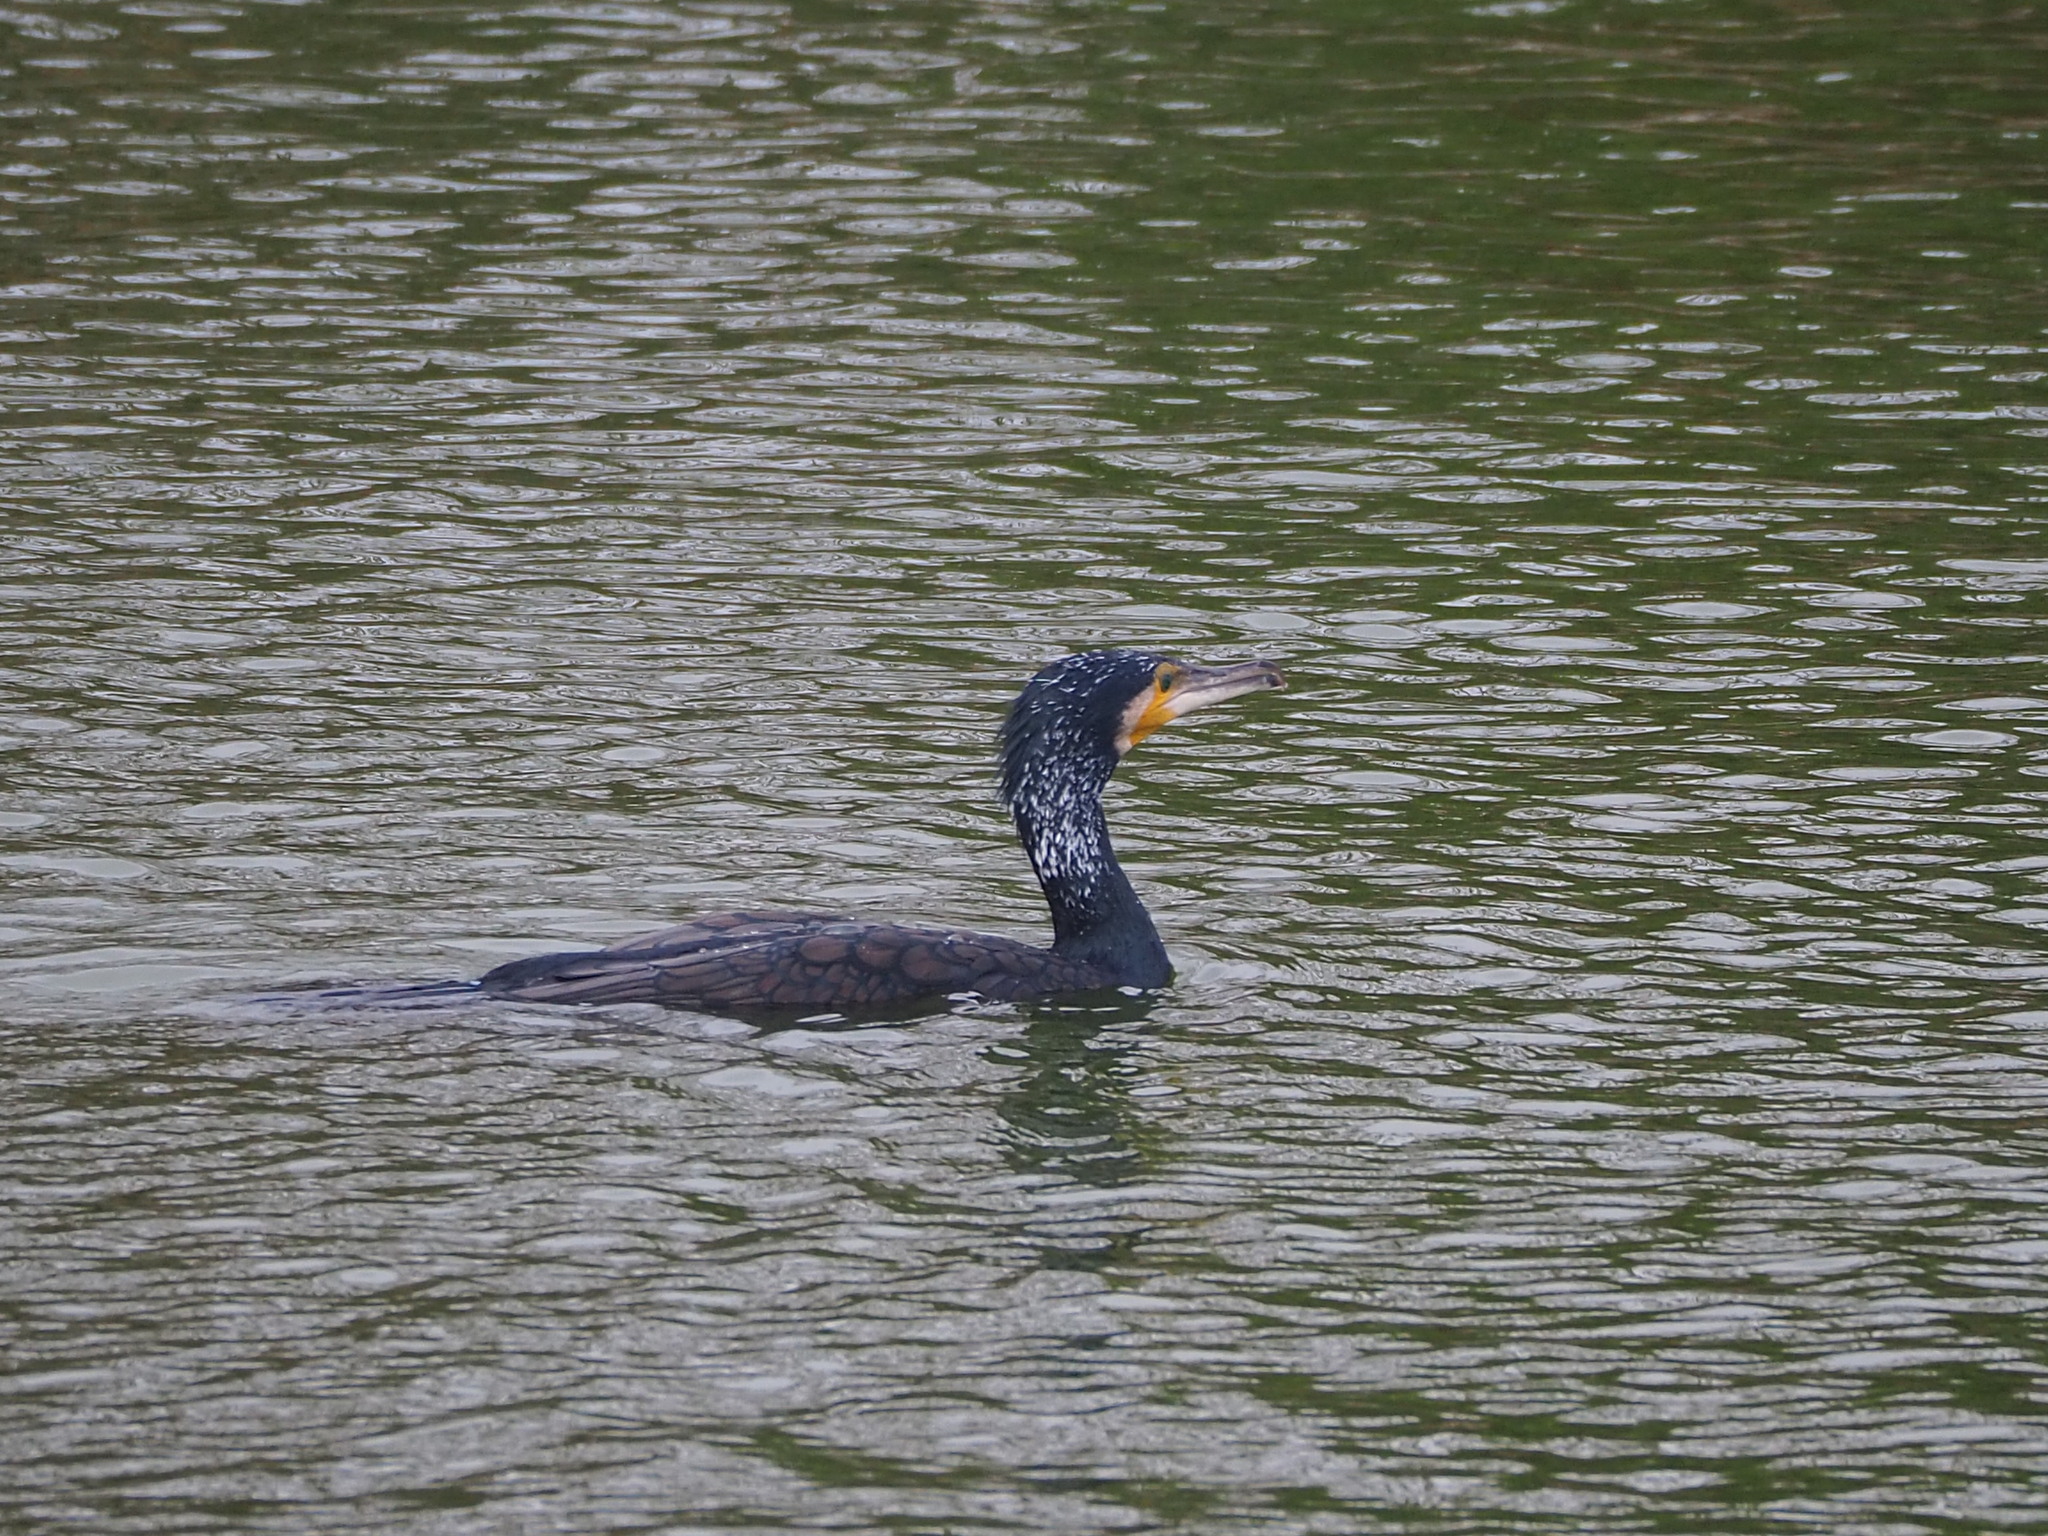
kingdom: Animalia
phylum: Chordata
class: Aves
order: Suliformes
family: Phalacrocoracidae
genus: Phalacrocorax
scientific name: Phalacrocorax carbo
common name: Great cormorant
